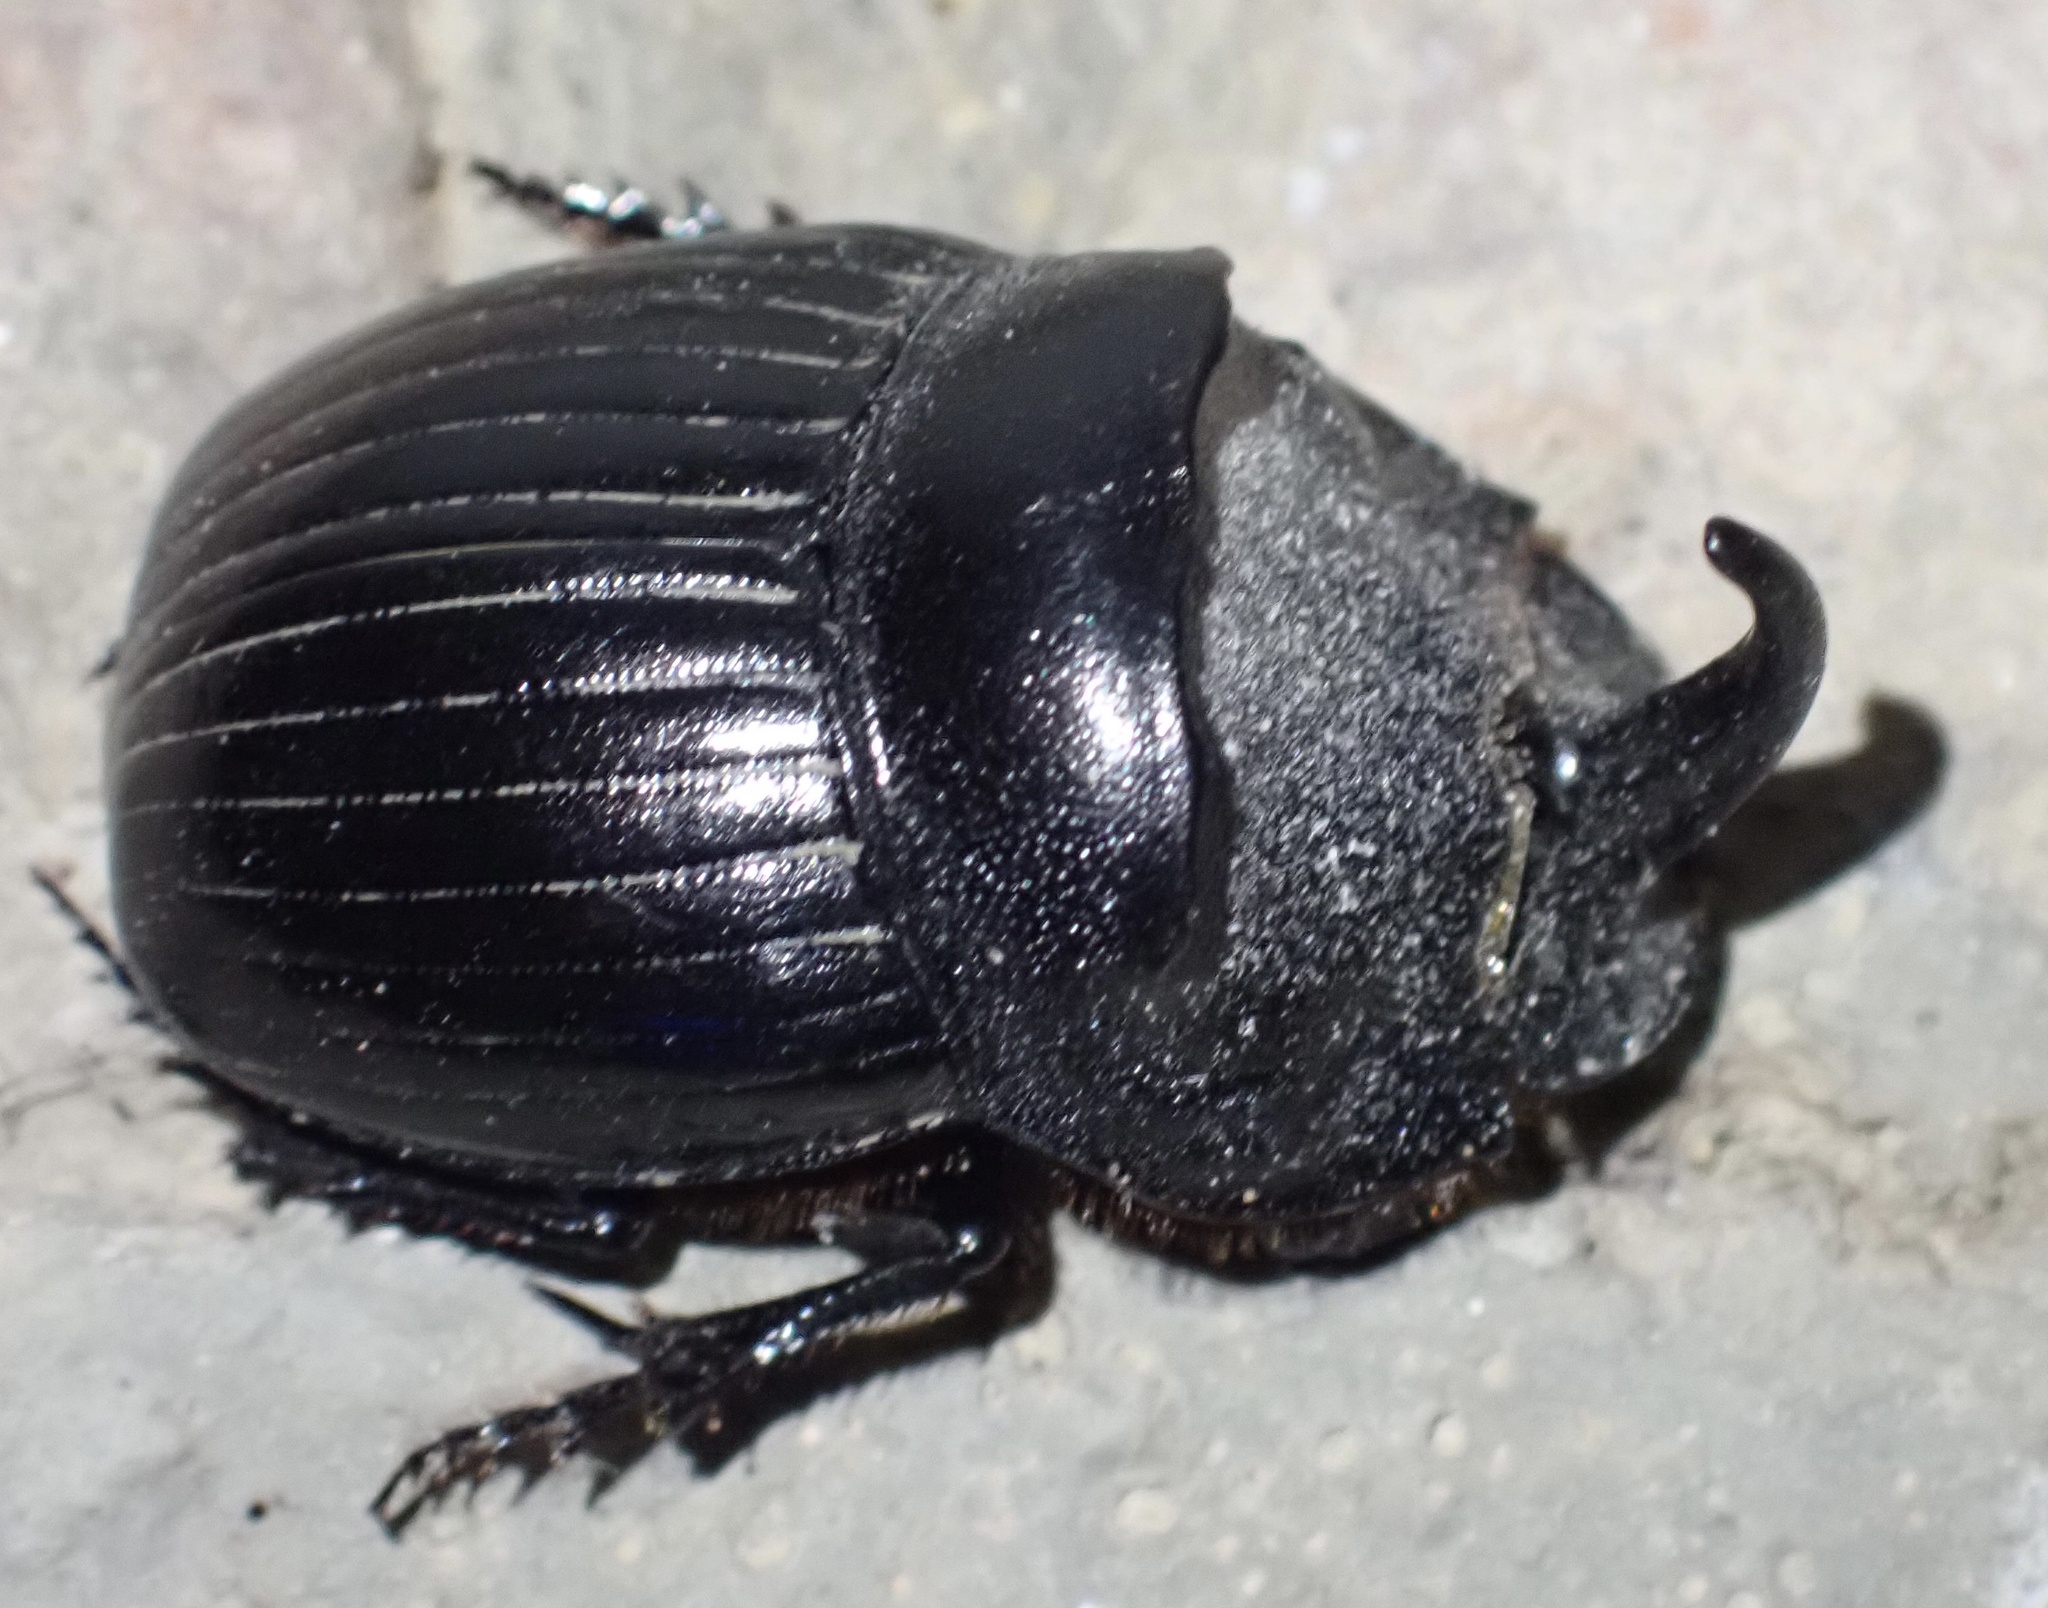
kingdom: Animalia
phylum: Arthropoda
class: Insecta
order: Coleoptera
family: Scarabaeidae
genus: Copris
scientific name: Copris hispanus
